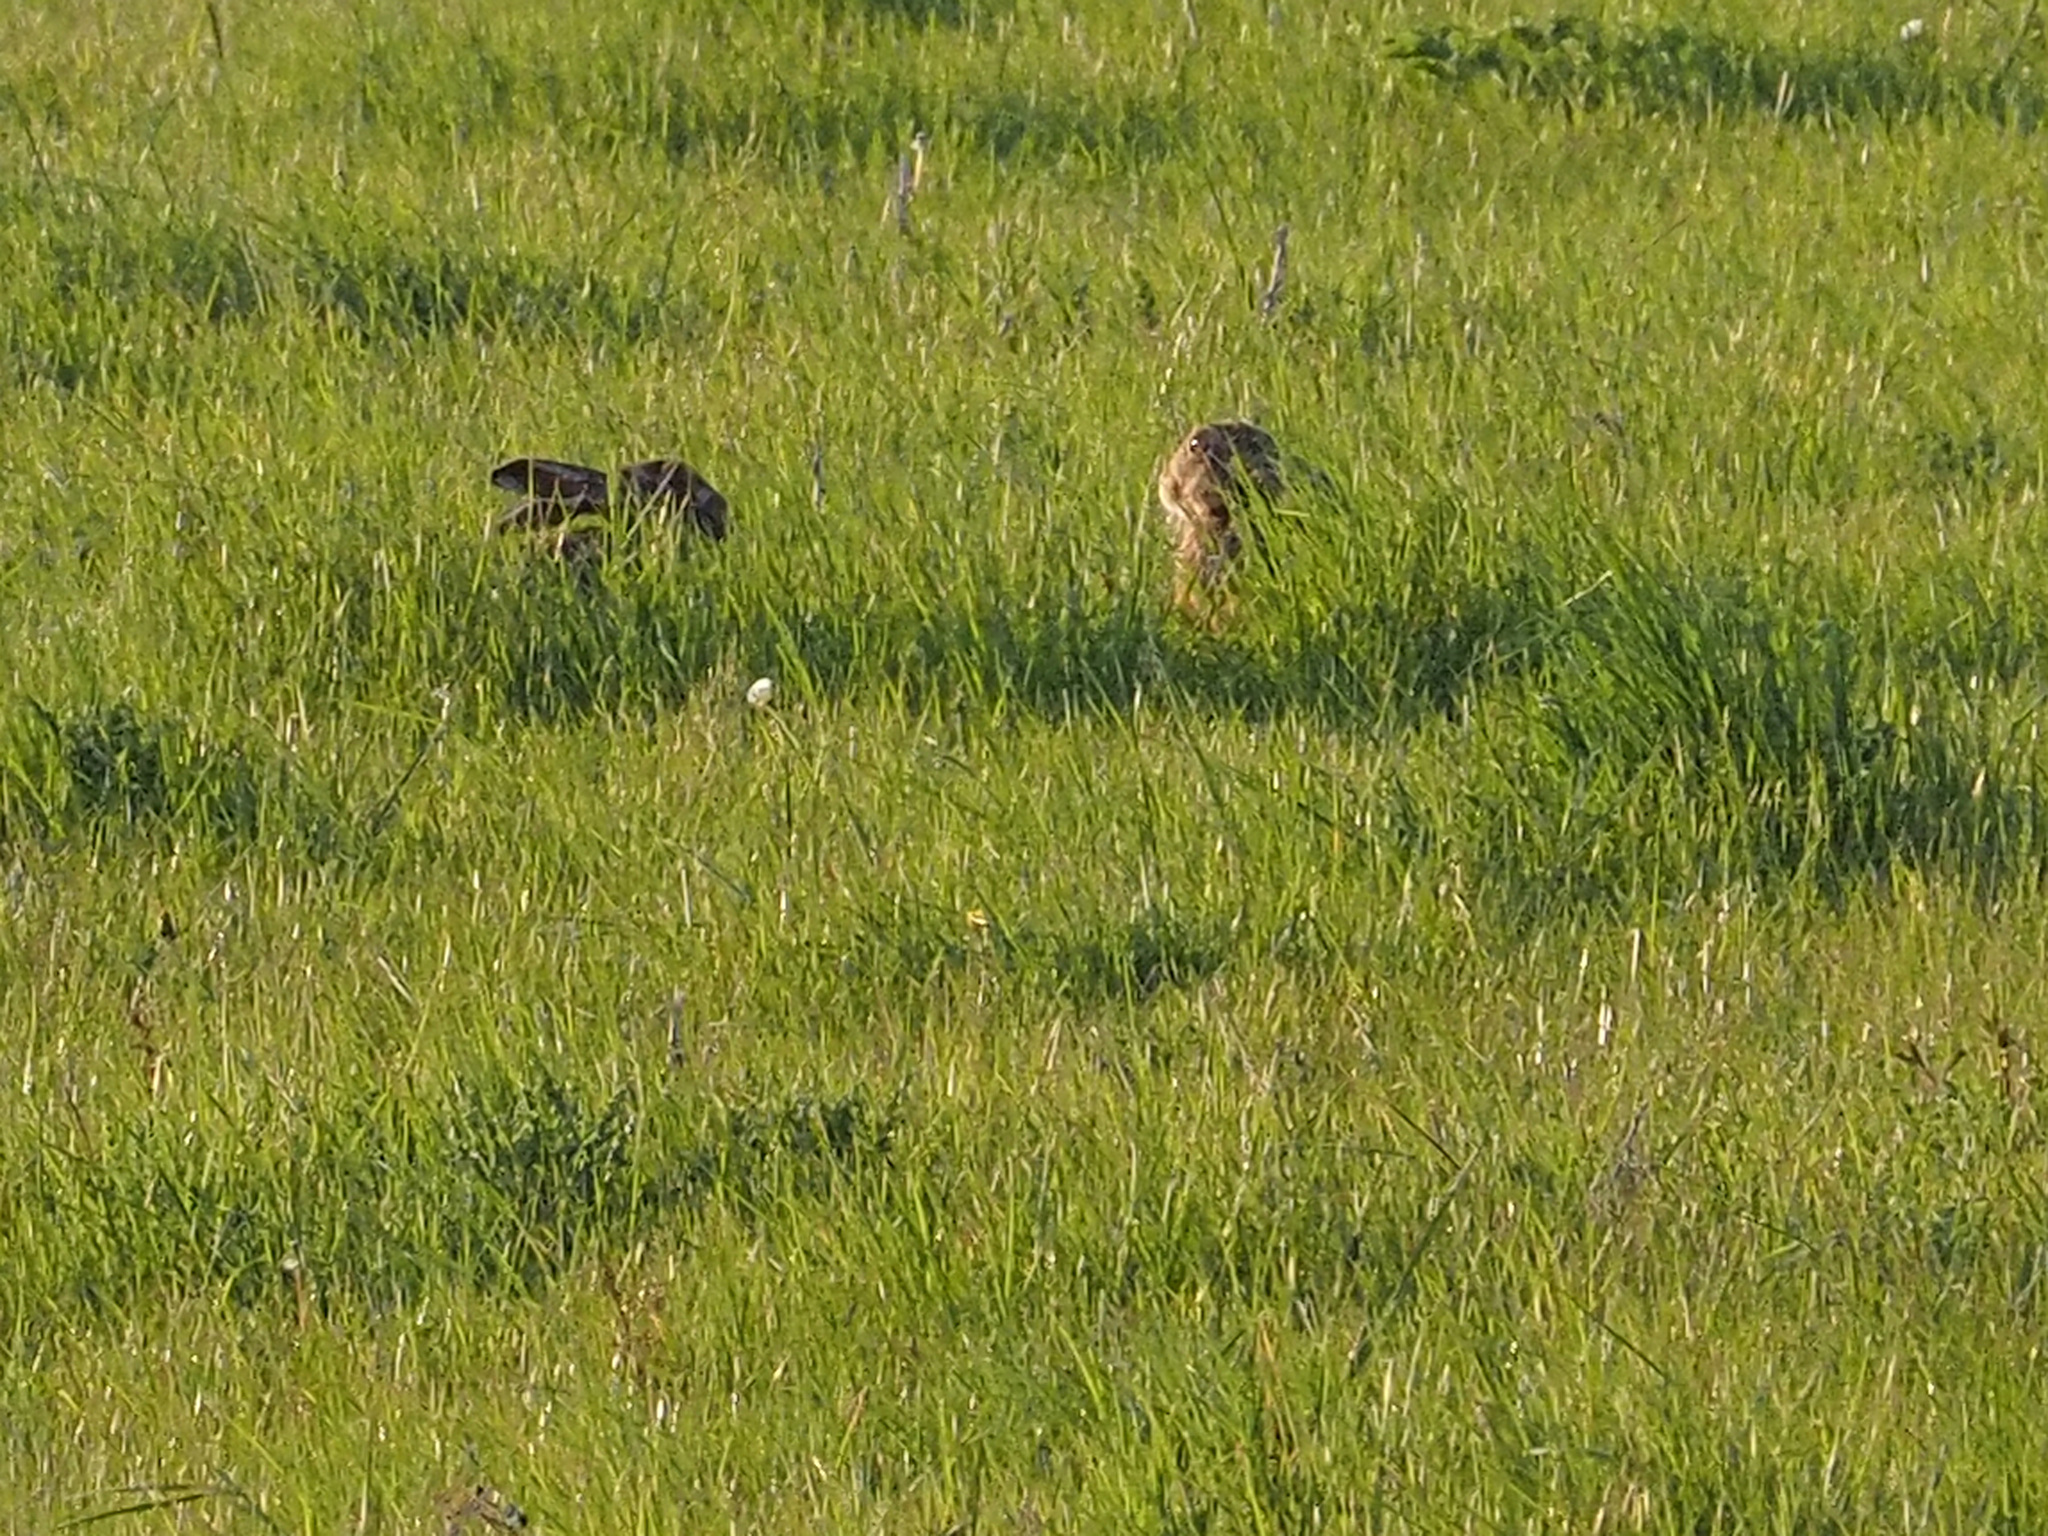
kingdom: Animalia
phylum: Chordata
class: Mammalia
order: Lagomorpha
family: Leporidae
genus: Lepus
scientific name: Lepus europaeus
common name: European hare
